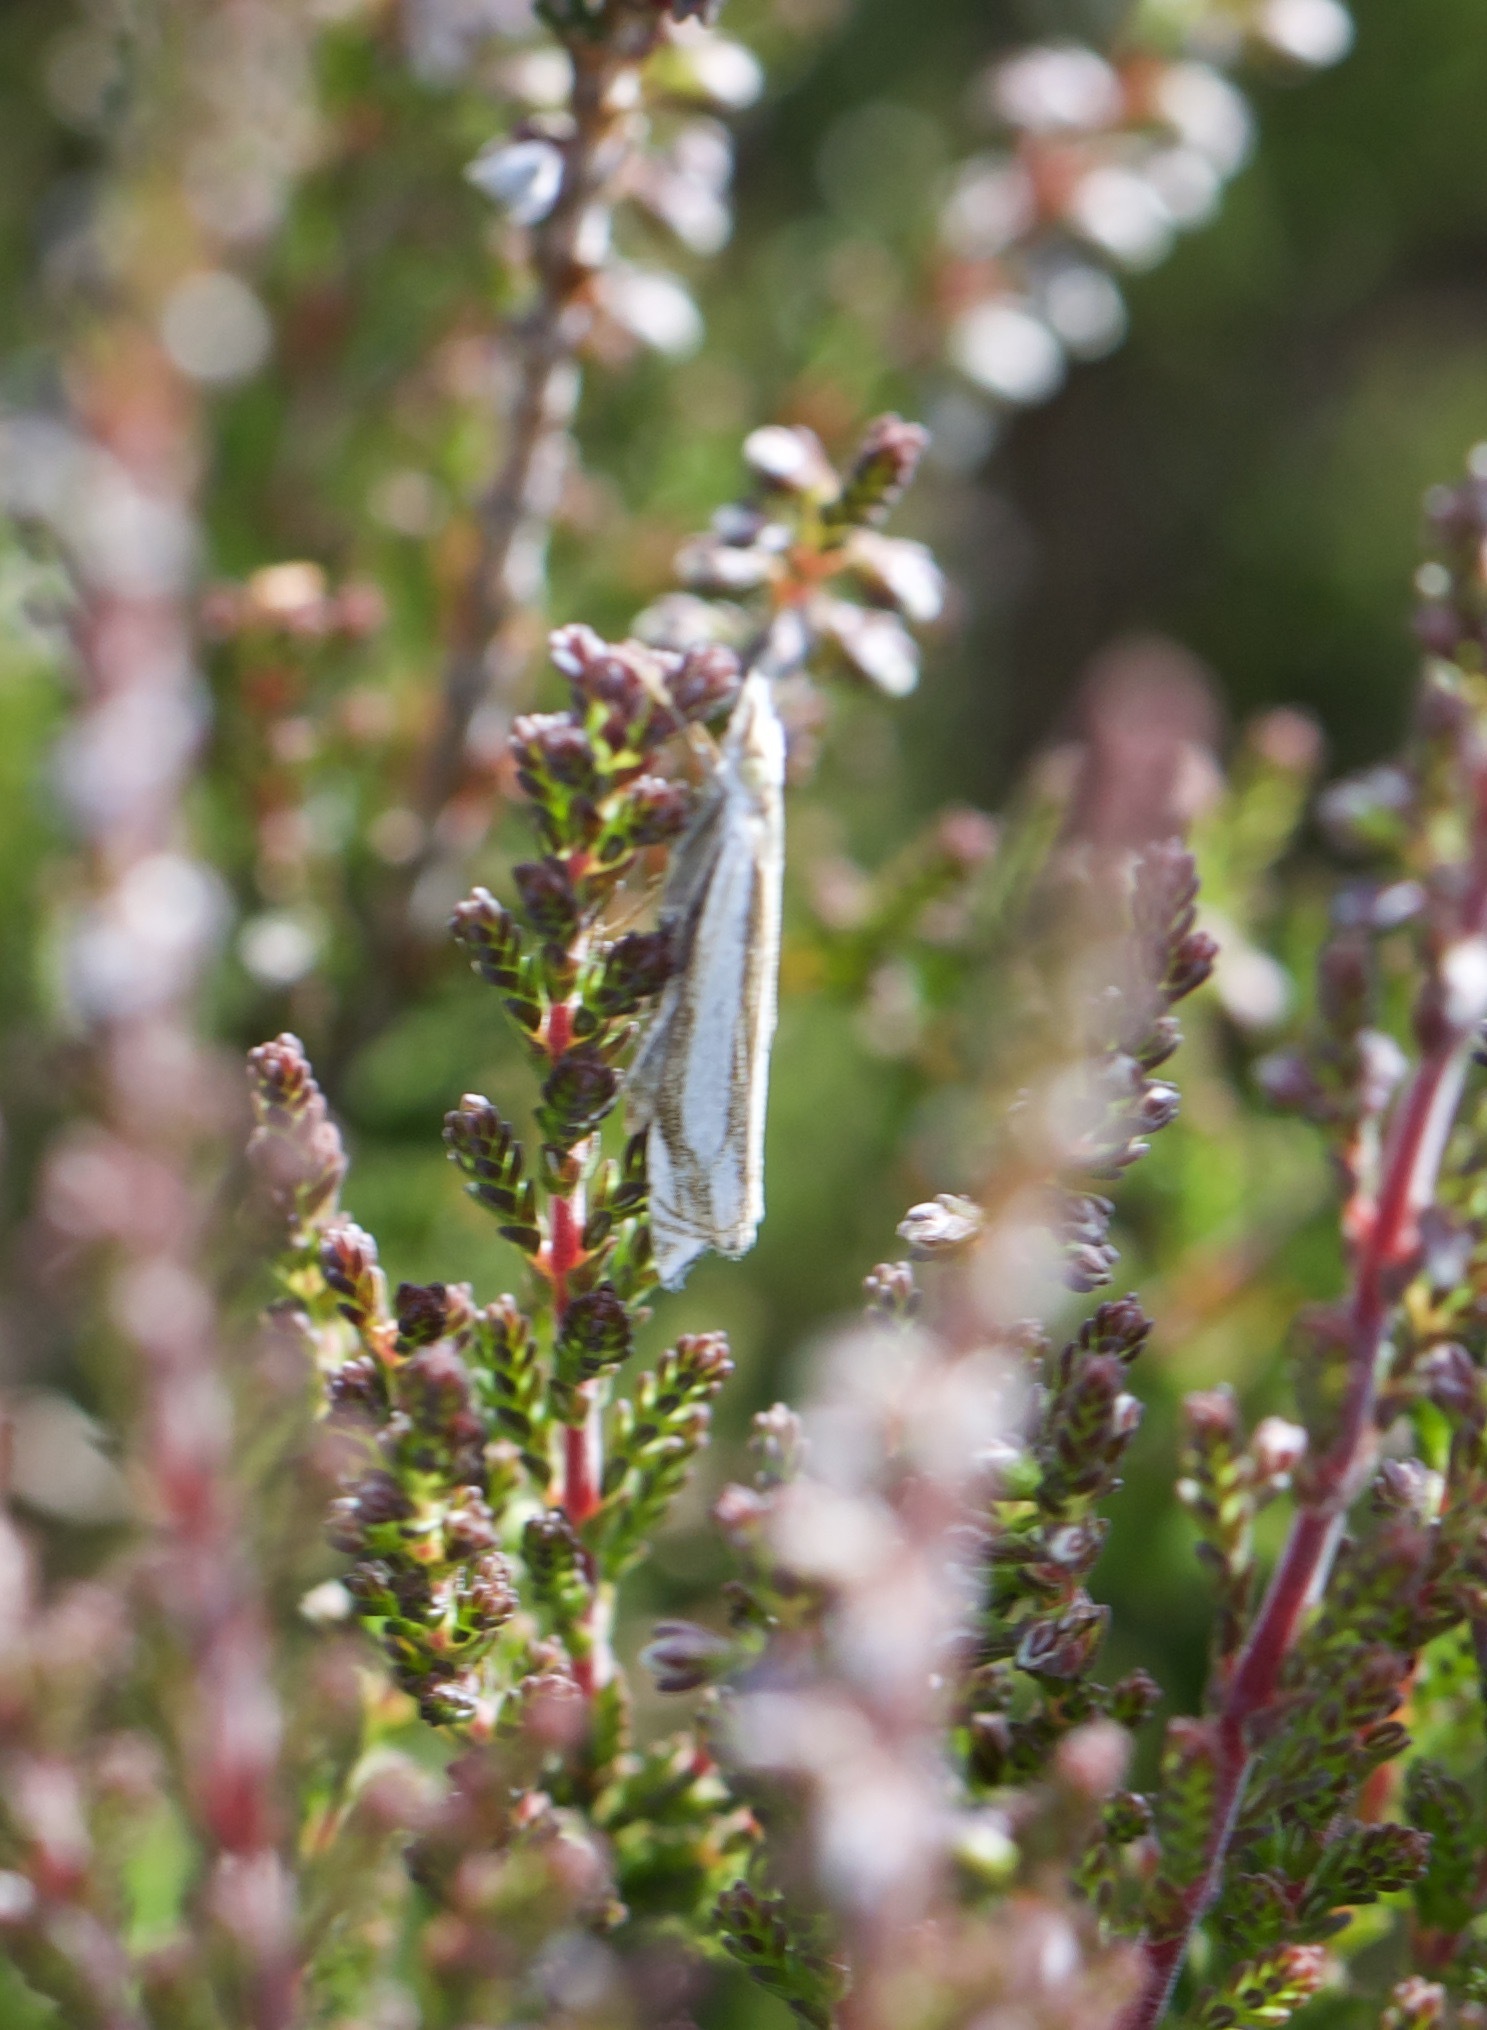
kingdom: Animalia
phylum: Arthropoda
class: Insecta
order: Lepidoptera
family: Crambidae
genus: Crambus
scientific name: Crambus pascuella
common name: Inlaid grass-veneer
